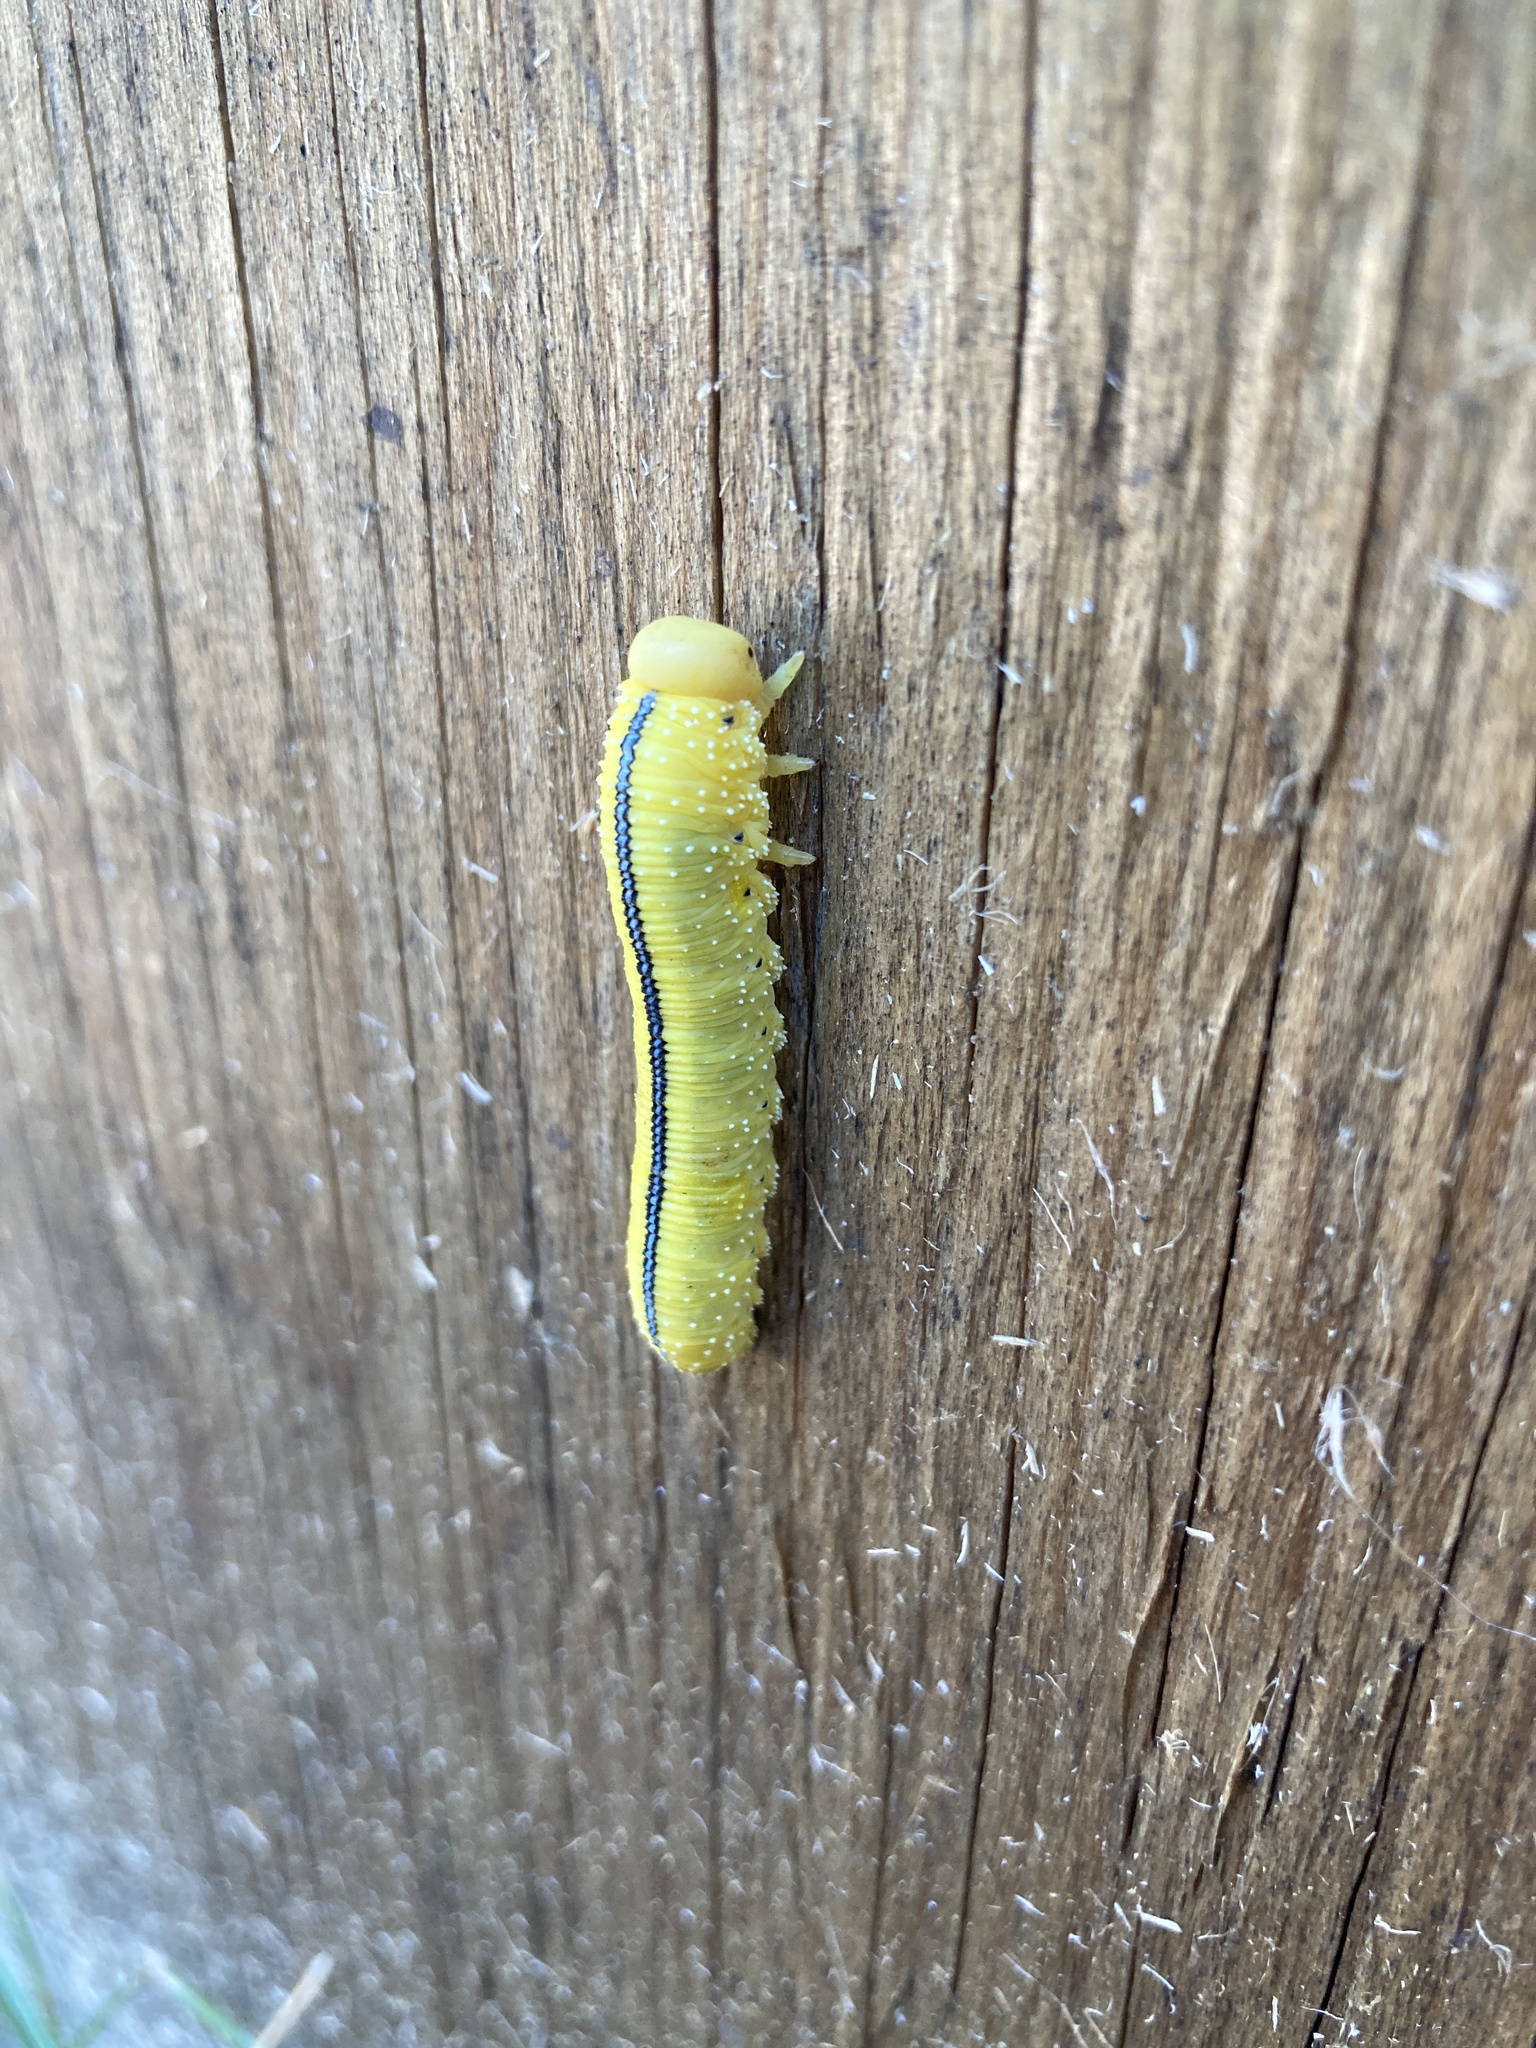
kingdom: Animalia
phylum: Arthropoda
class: Insecta
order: Hymenoptera
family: Cimbicidae
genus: Cimbex
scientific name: Cimbex americana
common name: Elm sawfly
